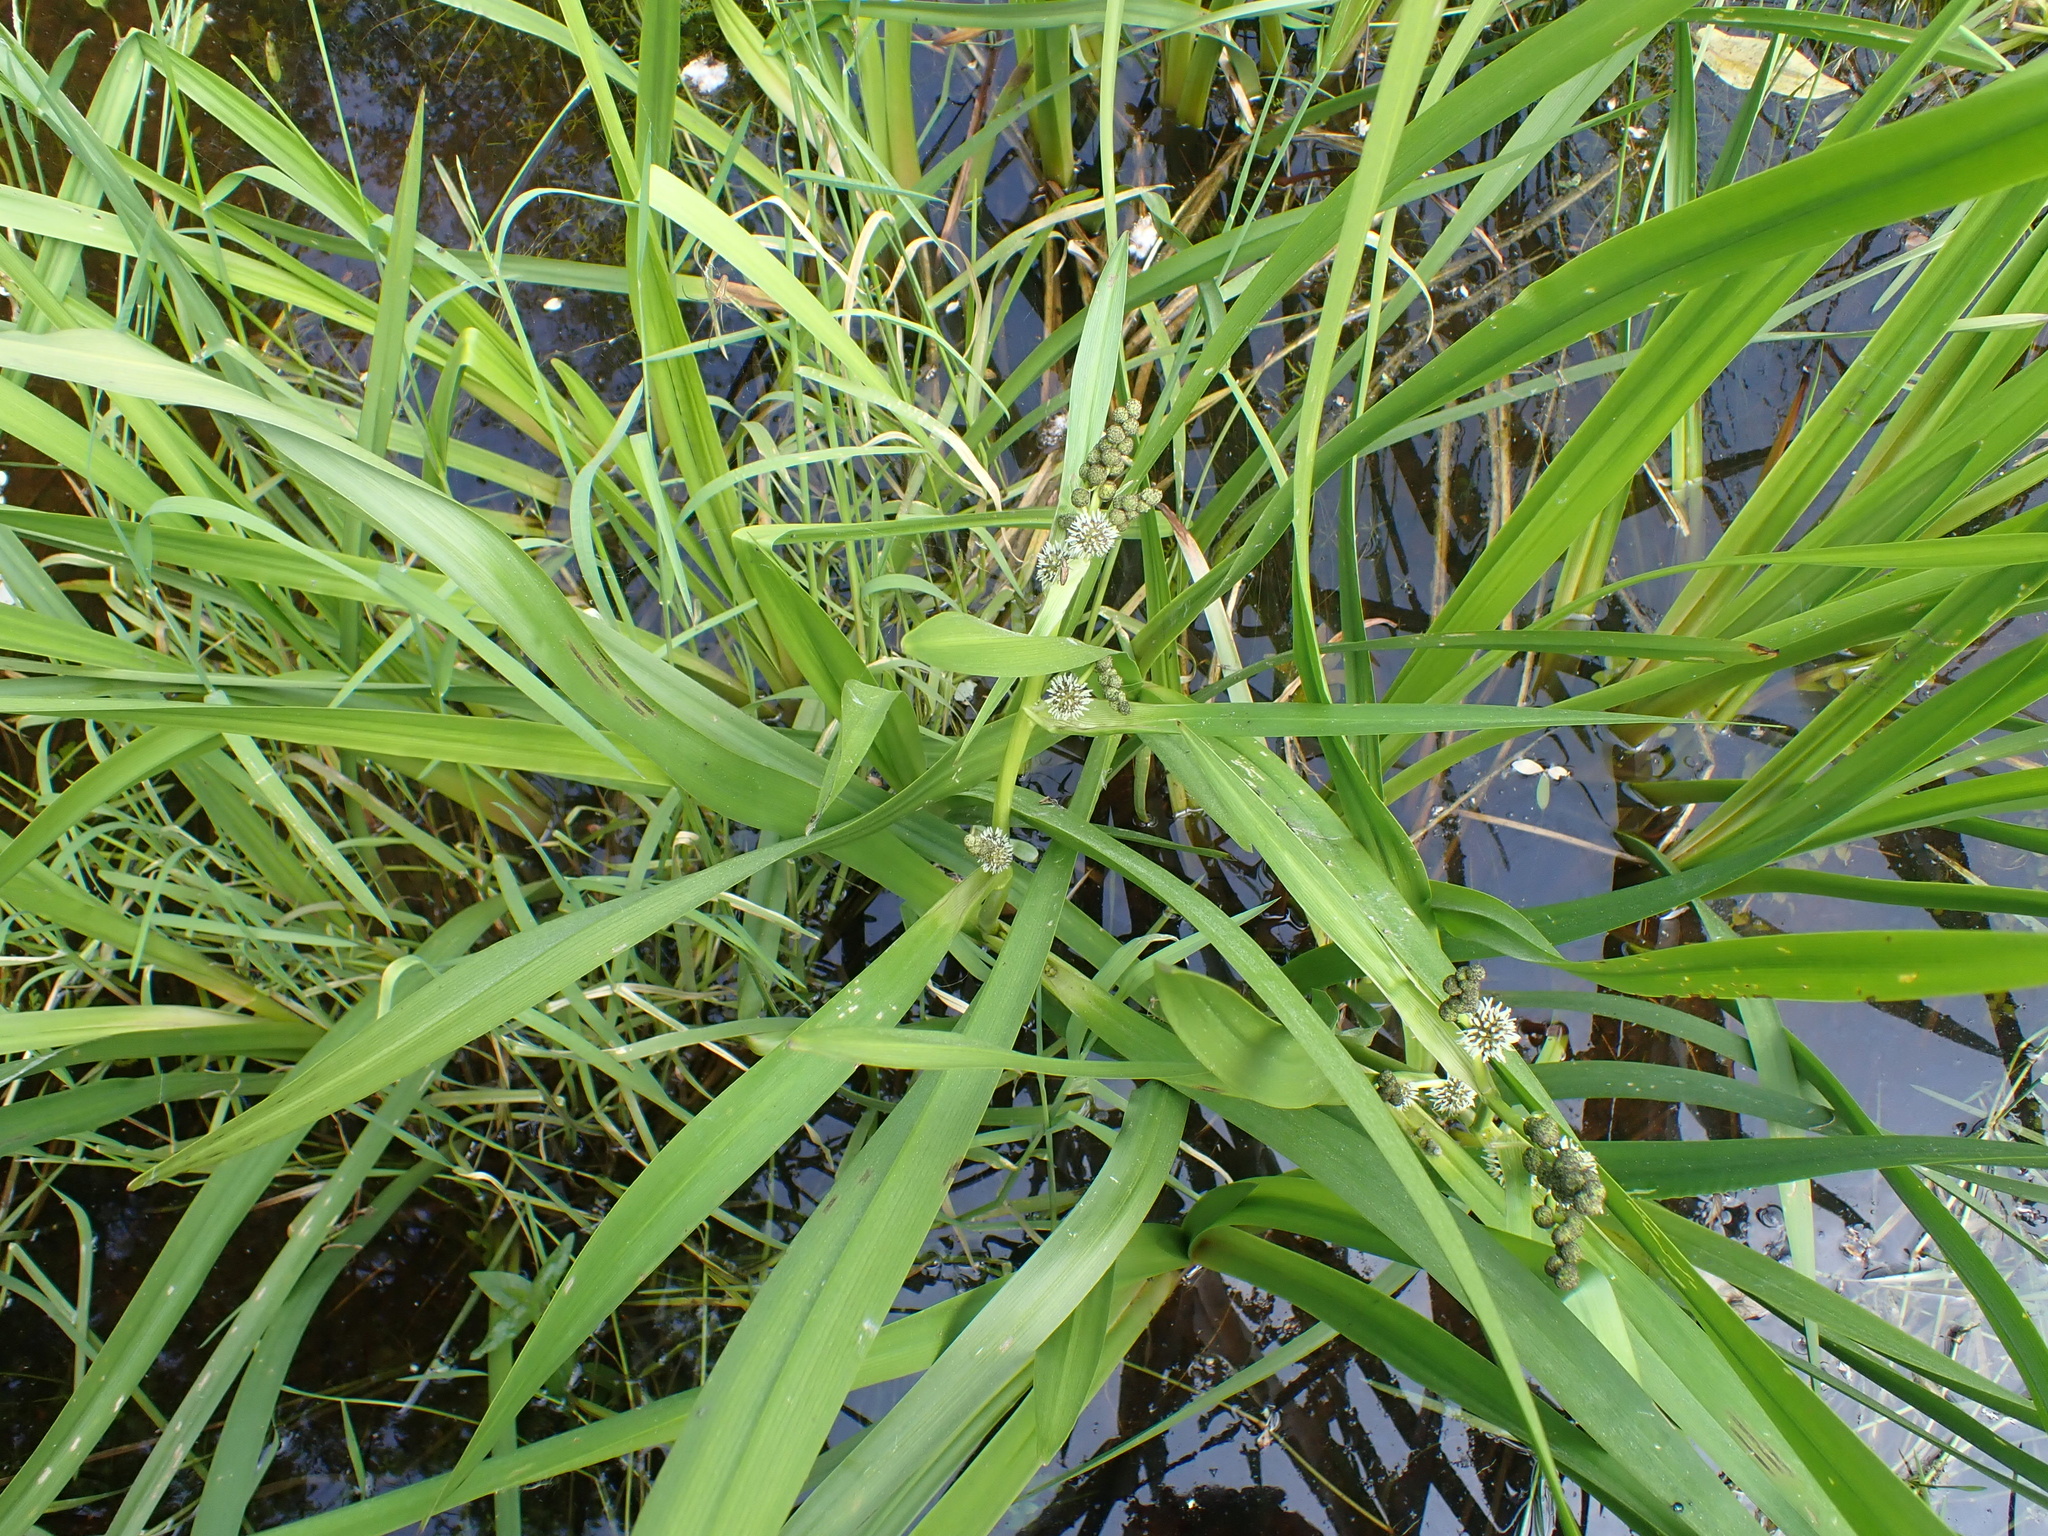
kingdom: Plantae
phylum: Tracheophyta
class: Liliopsida
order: Poales
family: Typhaceae
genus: Sparganium
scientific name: Sparganium erectum
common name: Branched bur-reed
